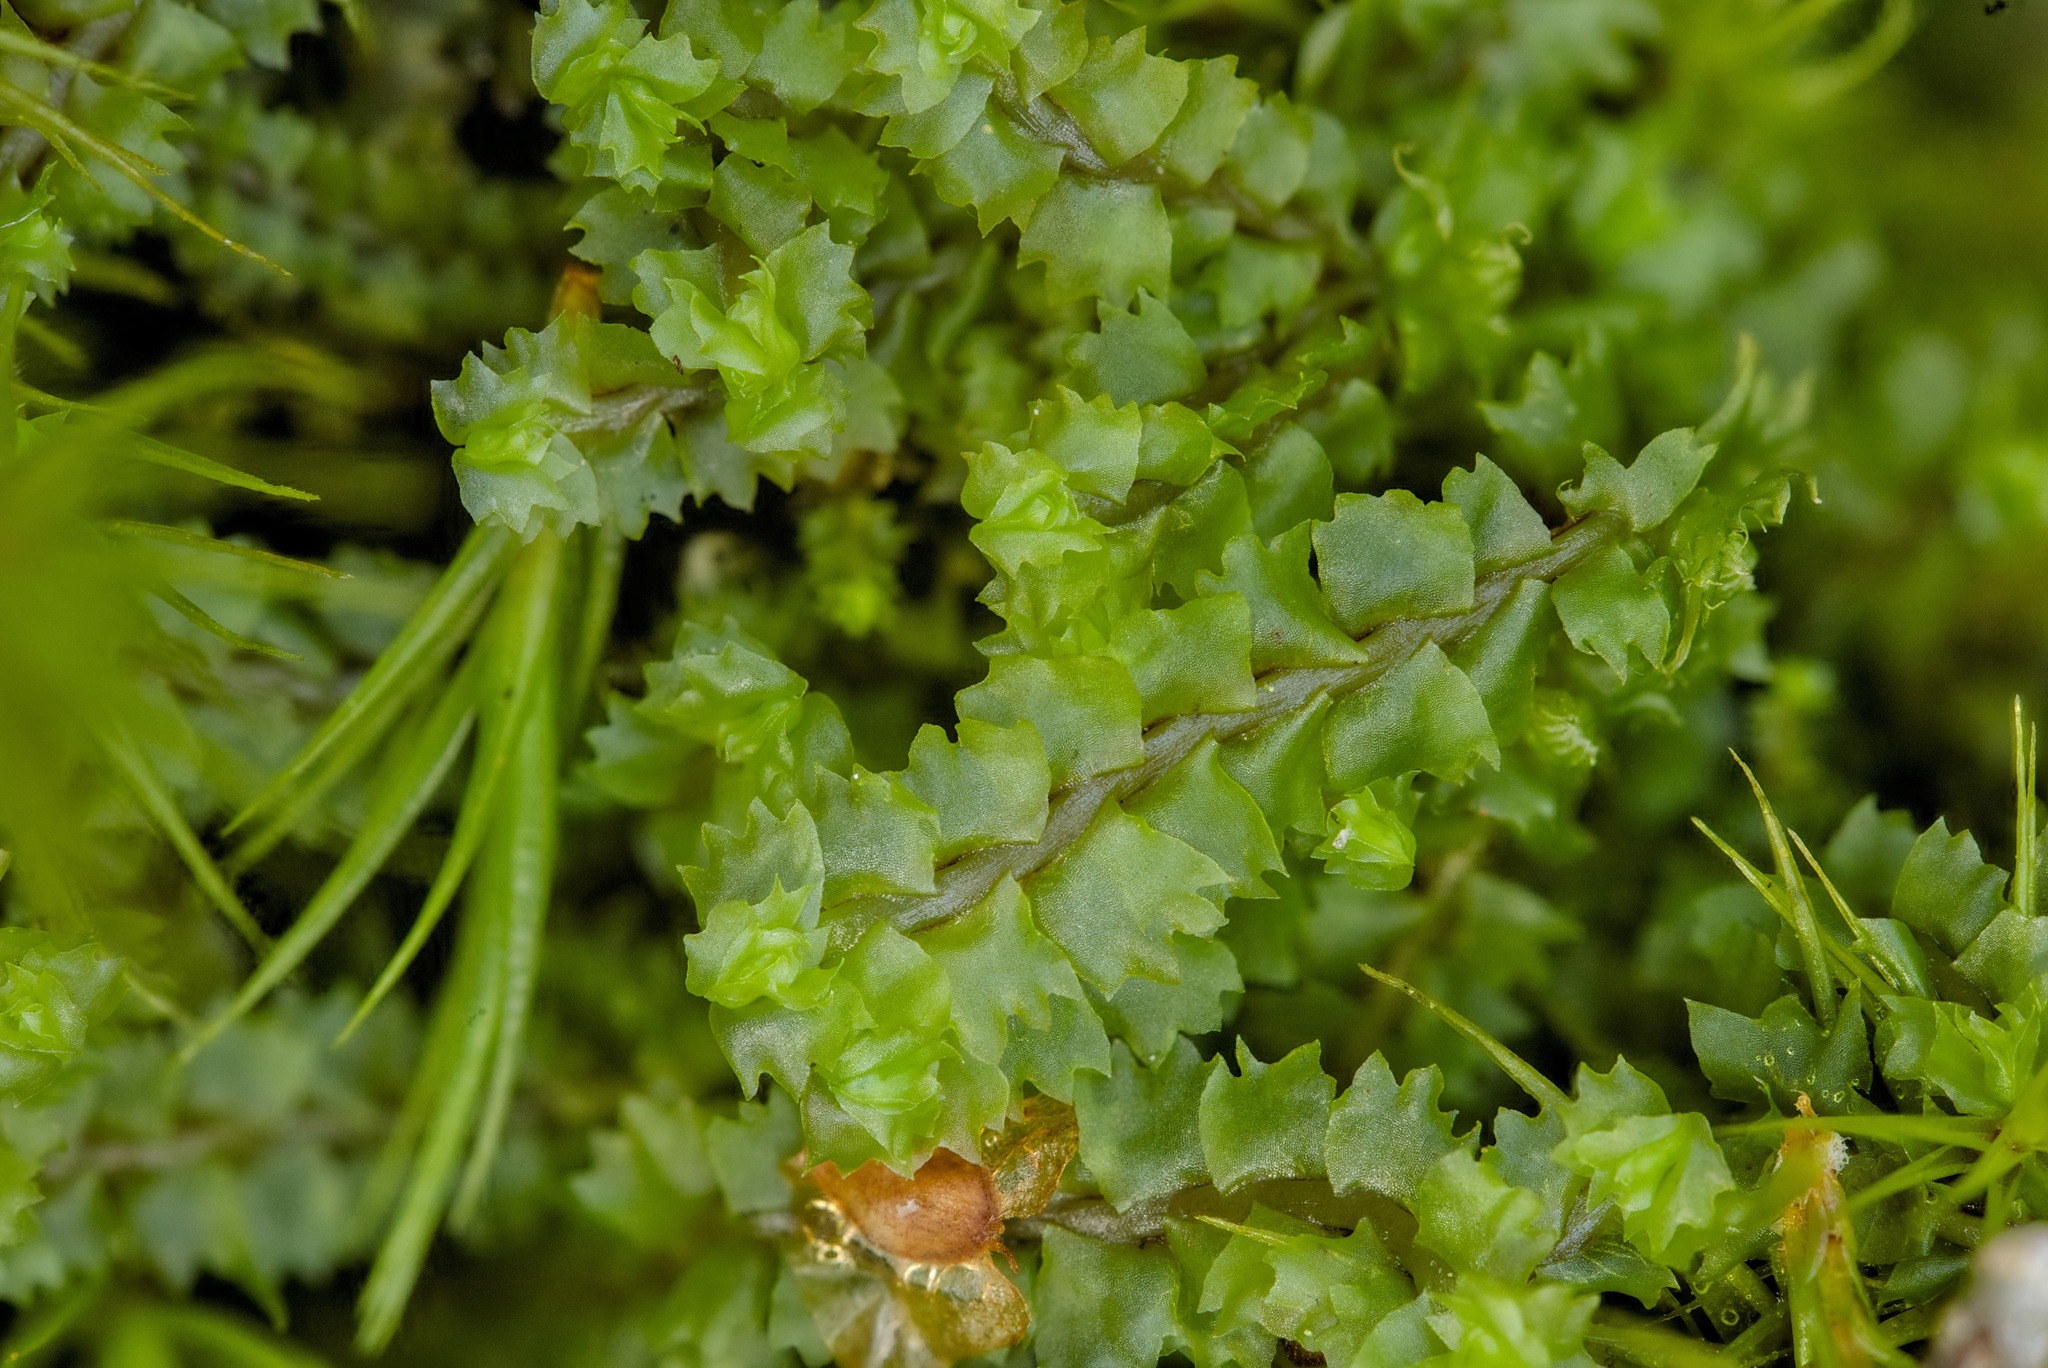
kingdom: Plantae
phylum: Marchantiophyta
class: Jungermanniopsida
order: Jungermanniales
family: Anastrophyllaceae
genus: Barbilophozia
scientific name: Barbilophozia barbata
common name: Bearded pawwort
